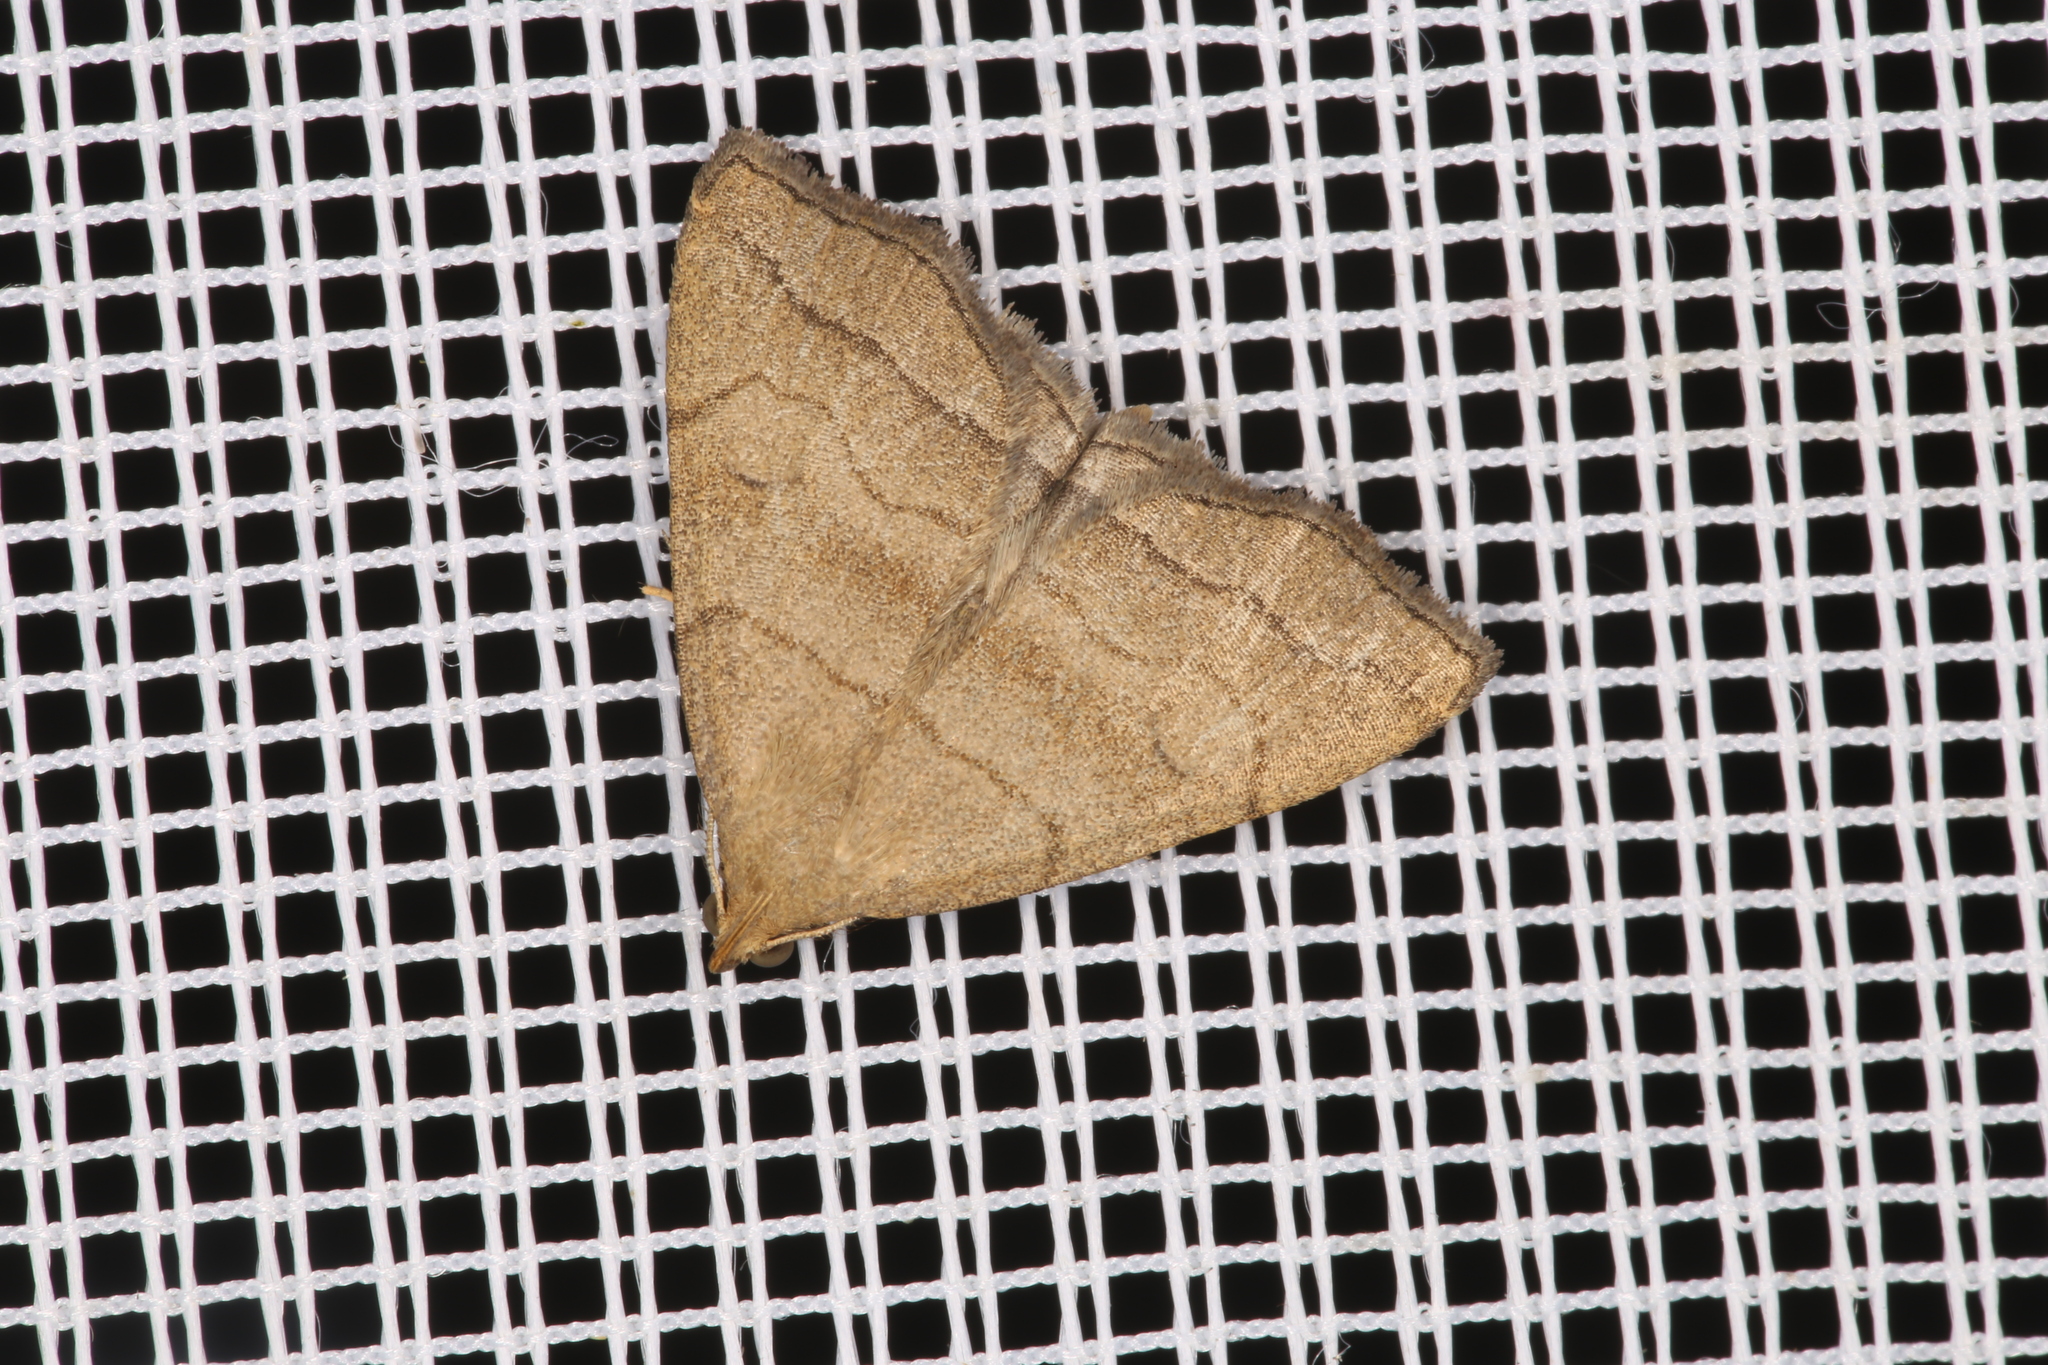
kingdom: Animalia
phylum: Arthropoda
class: Insecta
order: Lepidoptera
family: Erebidae
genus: Herminia
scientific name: Herminia tarsicrinalis
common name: Shaded fan-foot
